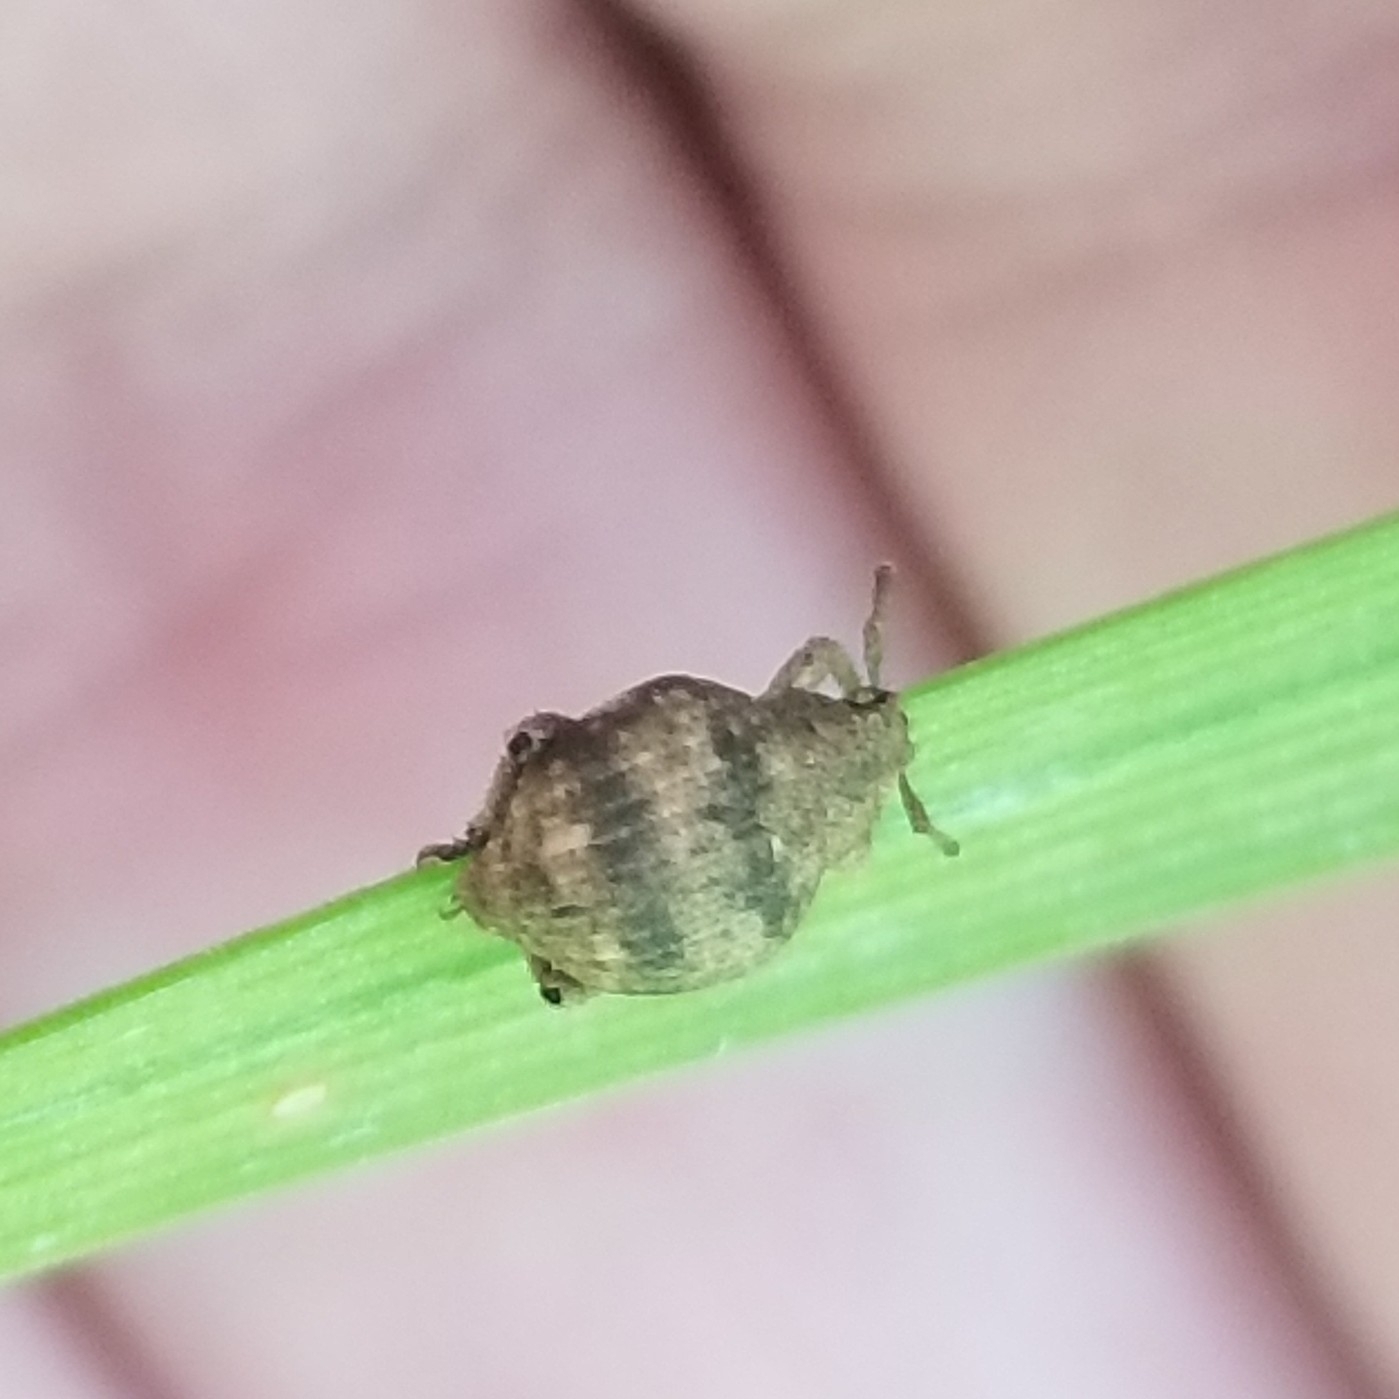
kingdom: Animalia
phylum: Arthropoda
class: Insecta
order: Coleoptera
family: Curculionidae
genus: Pseudocneorhinus
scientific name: Pseudocneorhinus bifasciatus
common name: Two-banded japanese weevil
